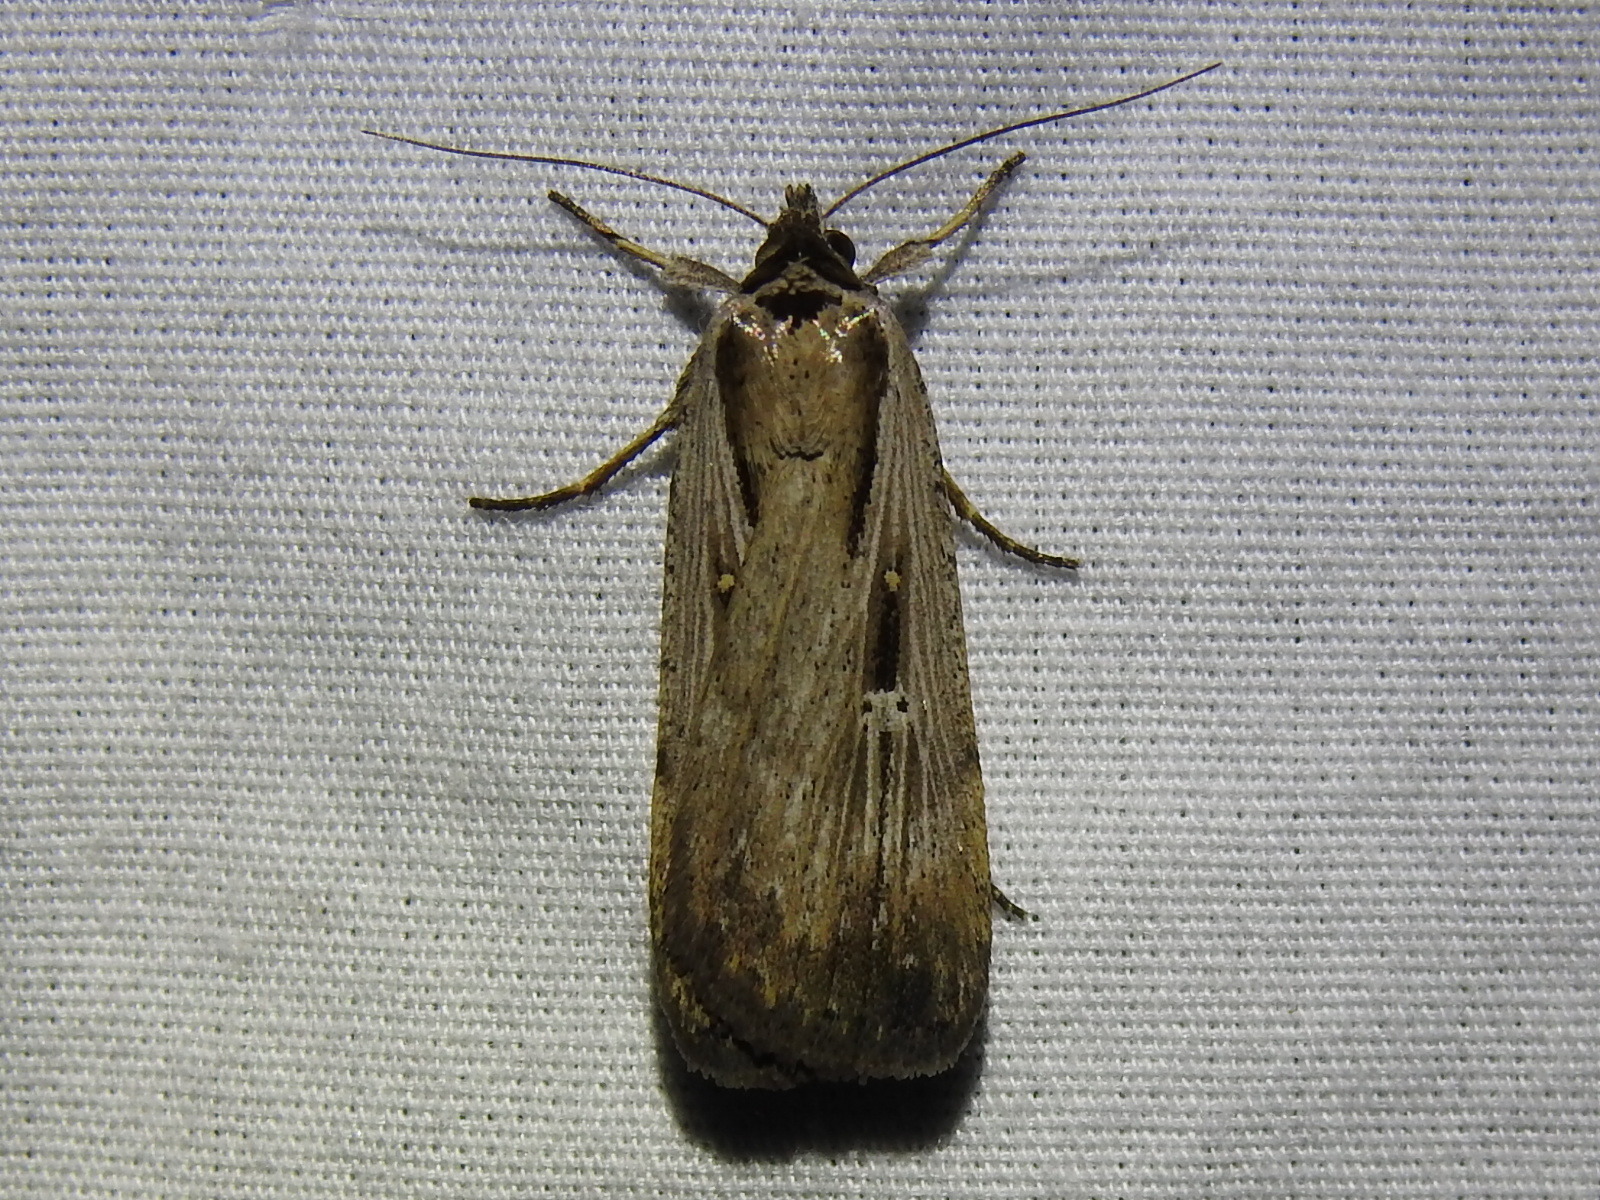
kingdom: Animalia
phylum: Arthropoda
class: Insecta
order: Lepidoptera
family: Noctuidae
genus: Tathorhynchus
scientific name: Tathorhynchus exsiccata
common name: Levant blackneck moth
